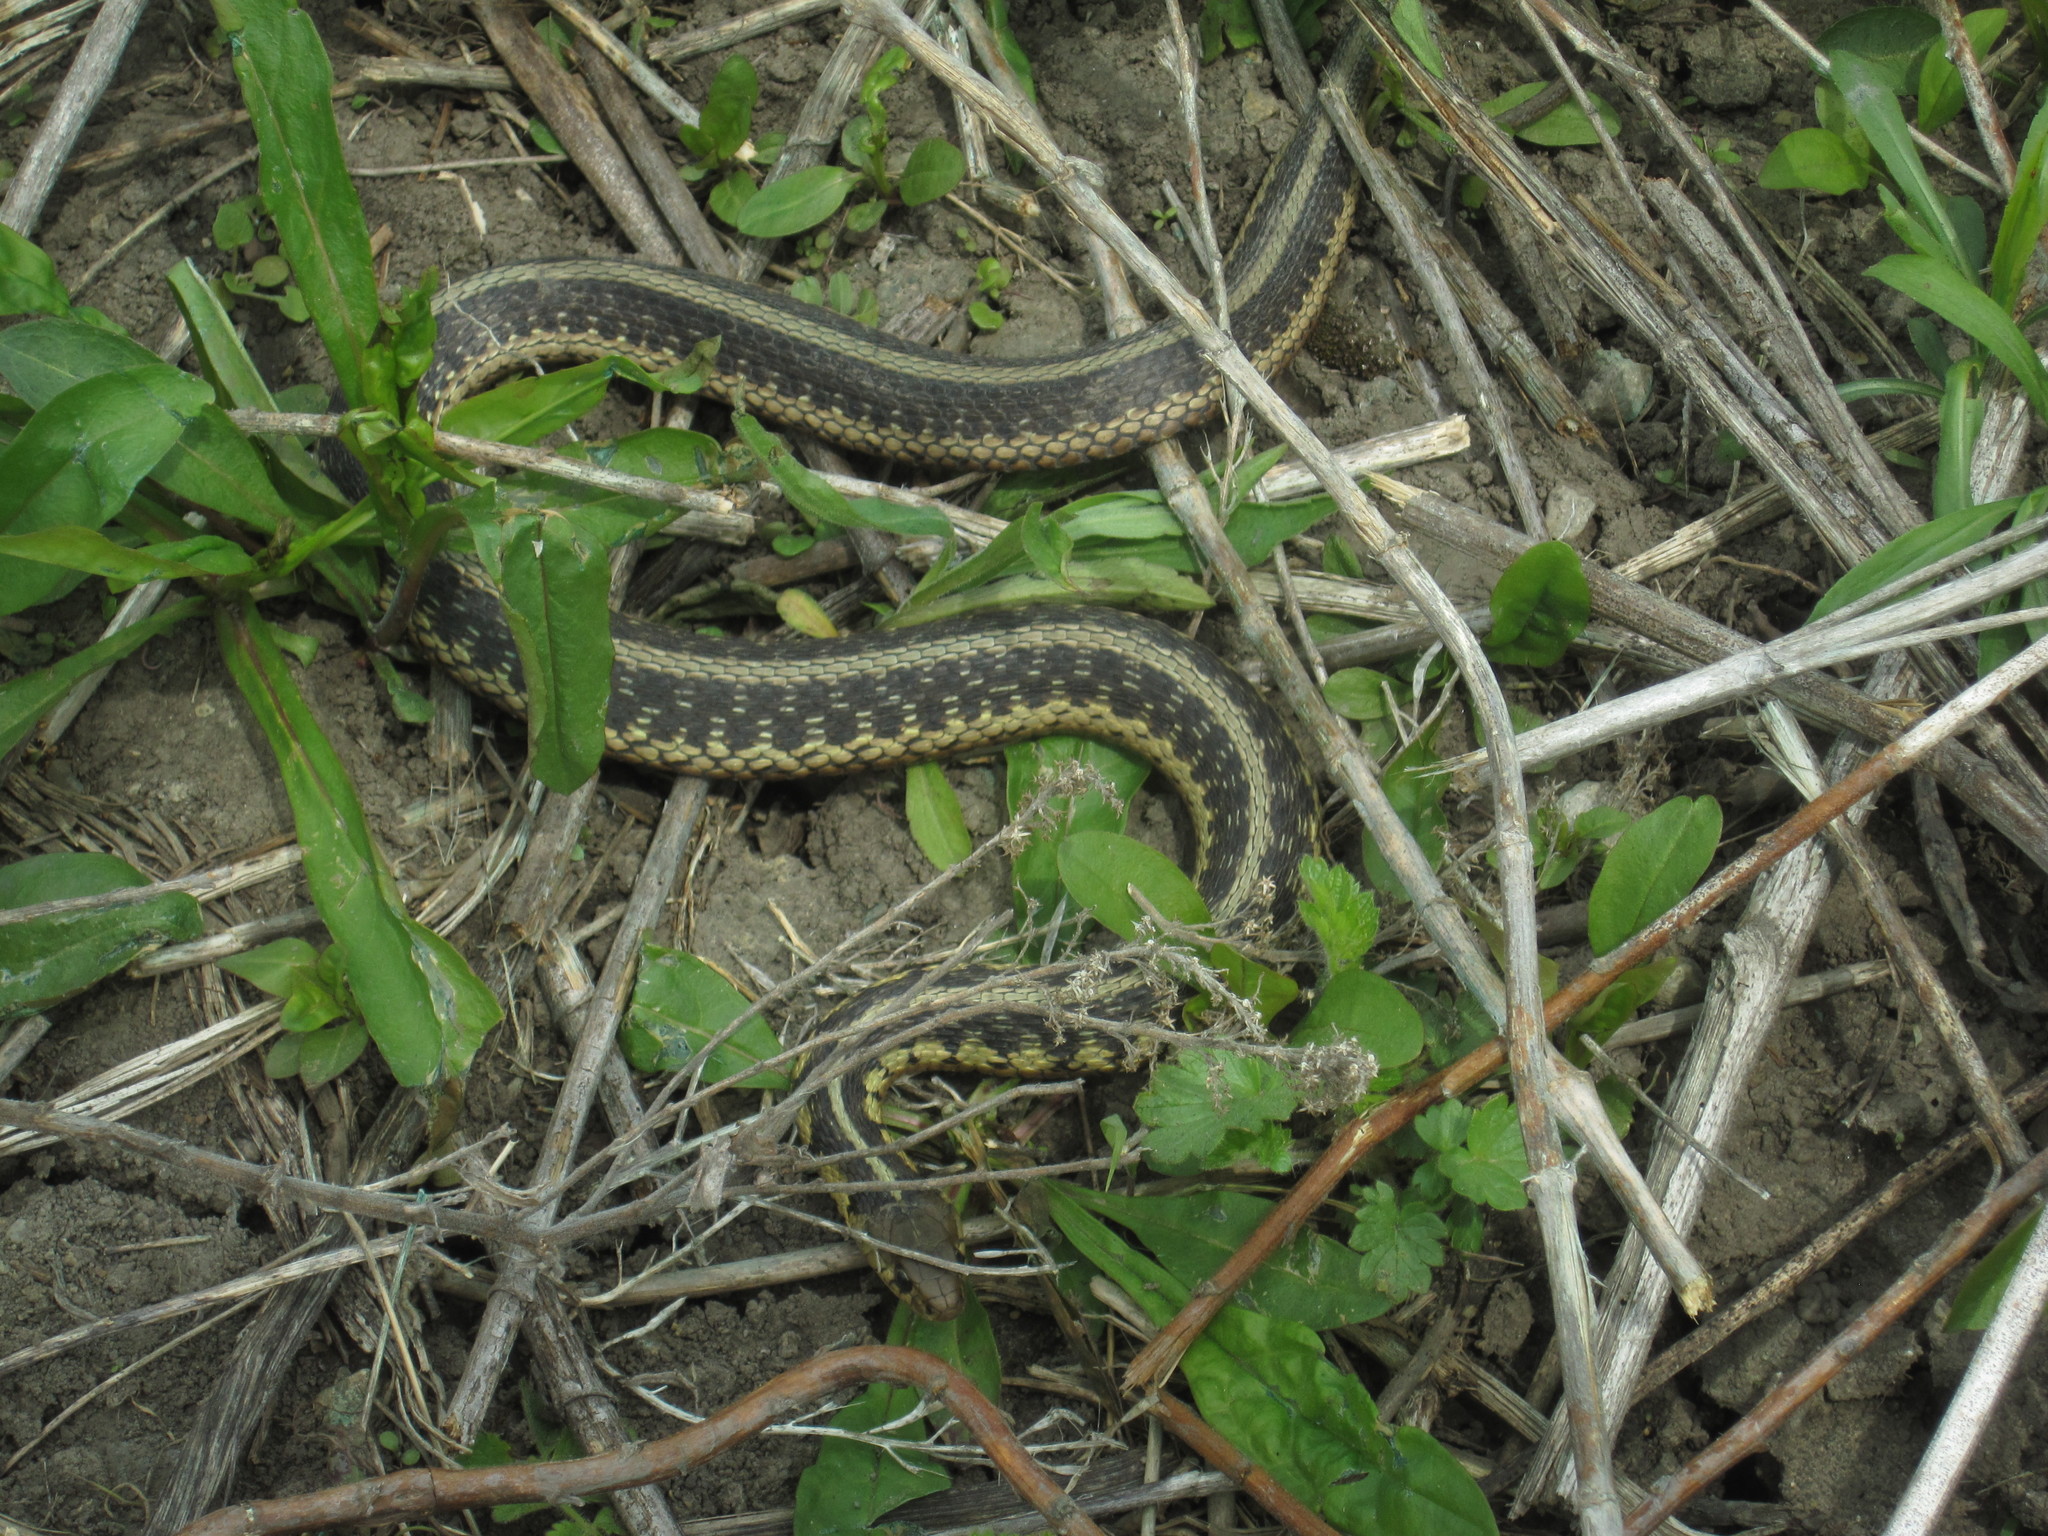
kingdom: Animalia
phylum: Chordata
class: Squamata
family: Colubridae
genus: Thamnophis
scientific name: Thamnophis sirtalis
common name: Common garter snake
